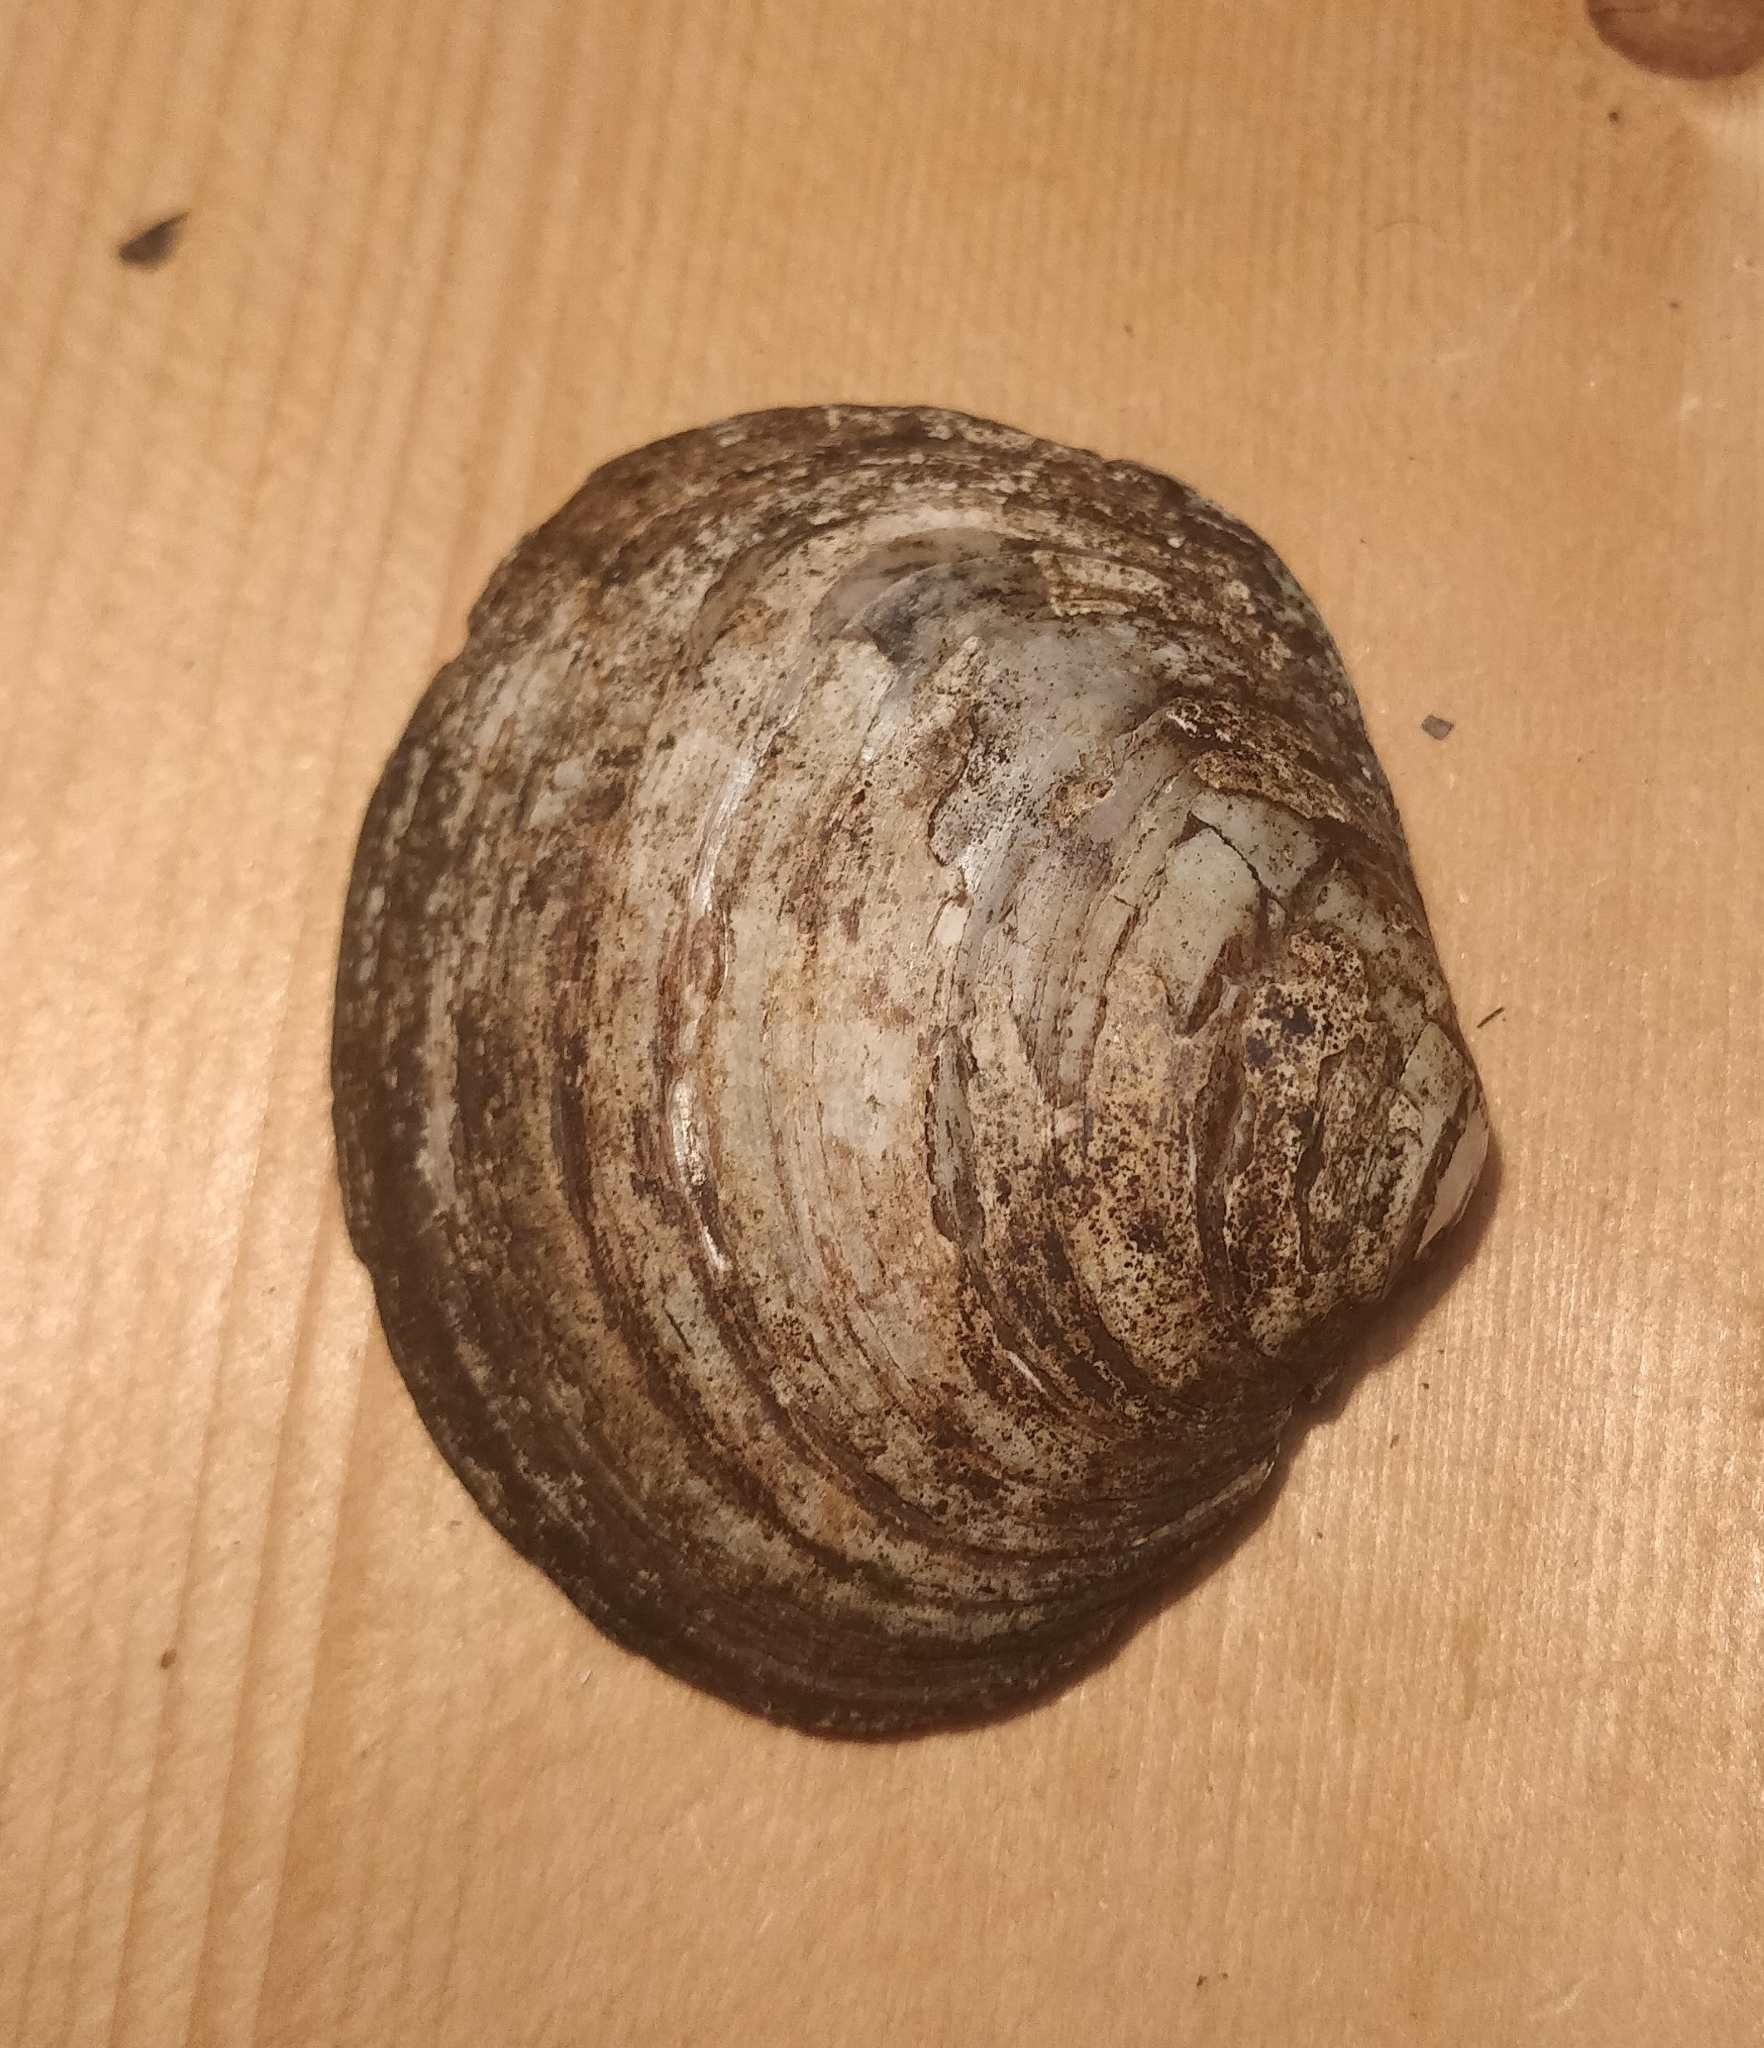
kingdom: Animalia
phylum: Mollusca
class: Bivalvia
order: Unionida
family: Unionidae
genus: Cyclonaias
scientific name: Cyclonaias pustulosa
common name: Pimpleback
